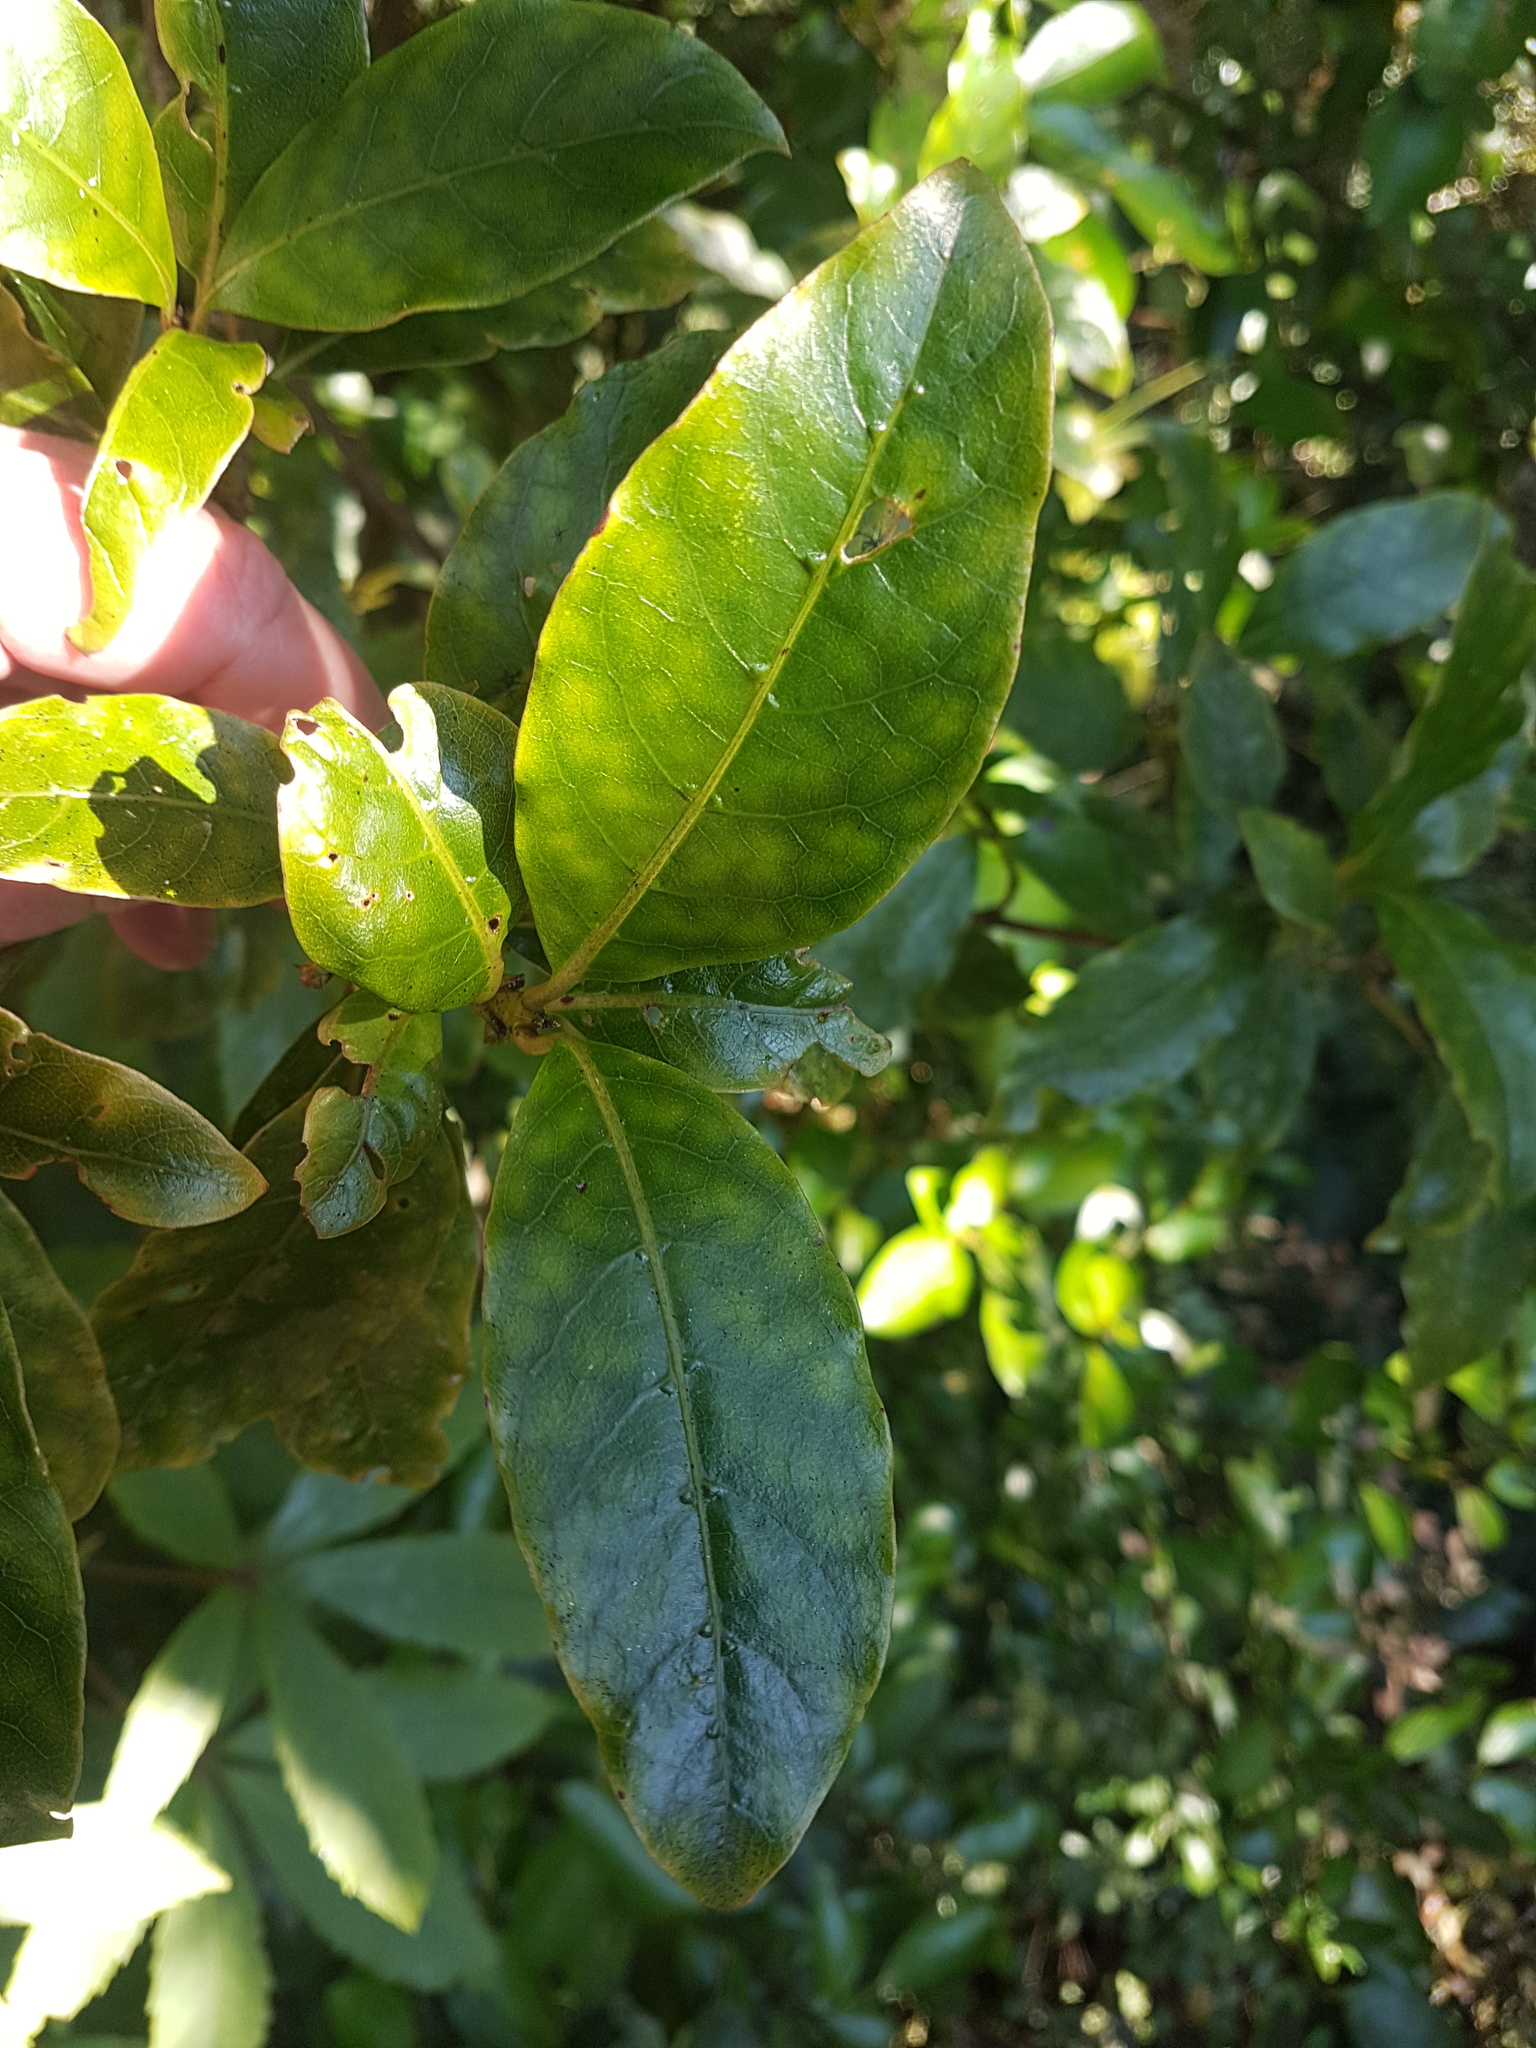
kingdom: Plantae
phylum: Tracheophyta
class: Magnoliopsida
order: Gentianales
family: Rubiaceae
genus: Coprosma
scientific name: Coprosma autumnalis
